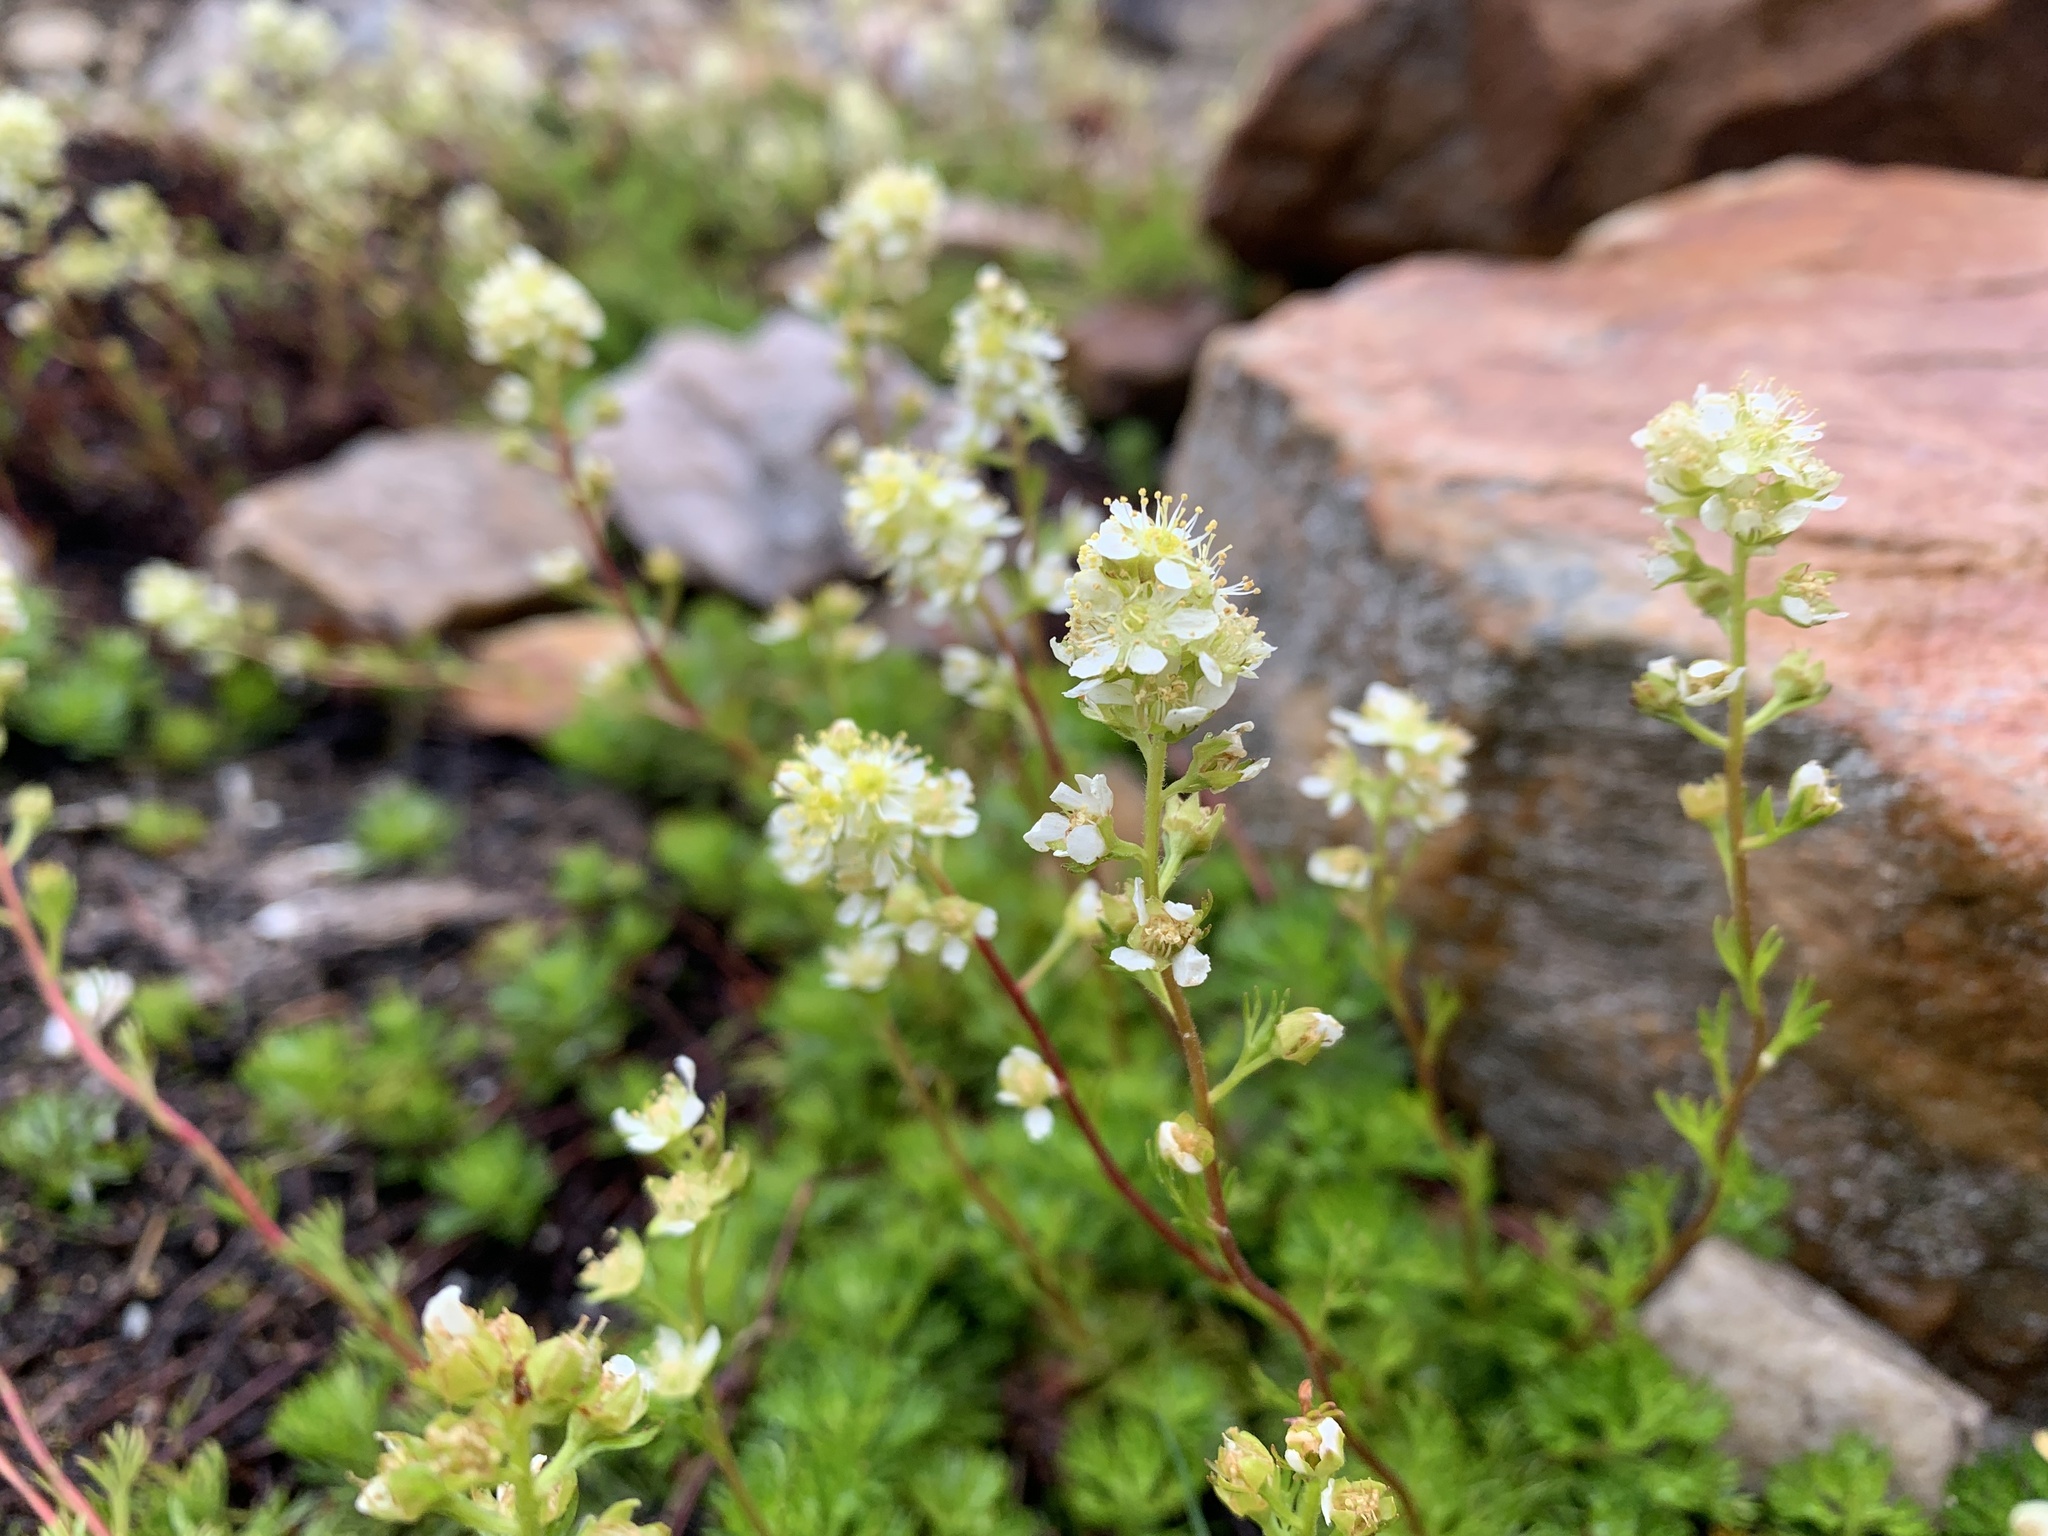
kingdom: Plantae
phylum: Tracheophyta
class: Magnoliopsida
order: Rosales
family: Rosaceae
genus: Luetkea
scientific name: Luetkea pectinata
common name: Partridgefoot
